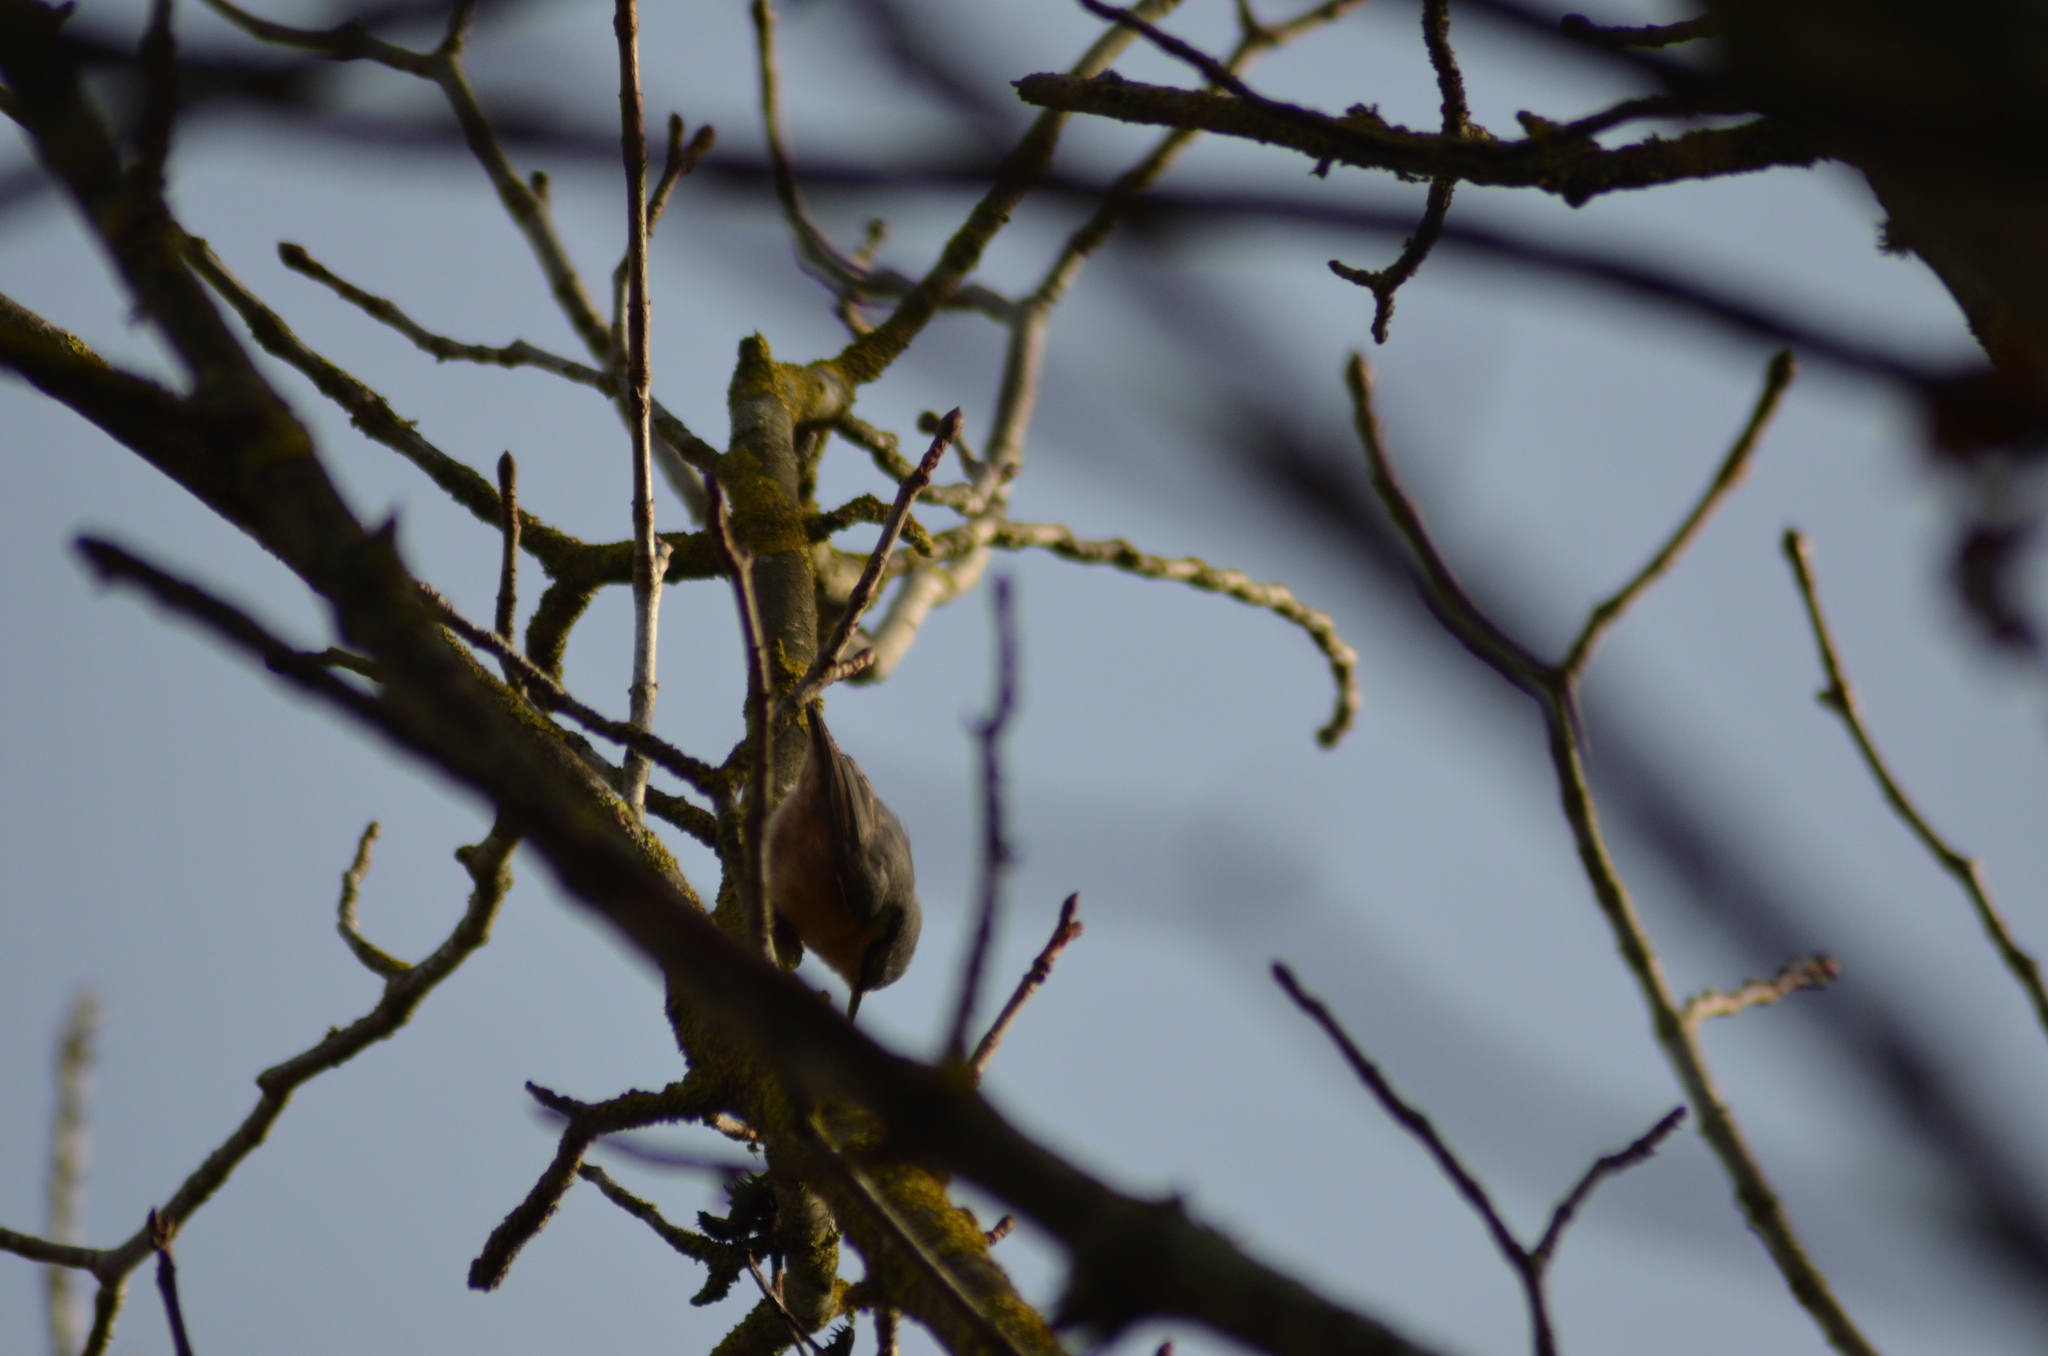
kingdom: Animalia
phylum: Chordata
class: Aves
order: Passeriformes
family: Sittidae
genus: Sitta
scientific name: Sitta europaea
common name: Eurasian nuthatch
